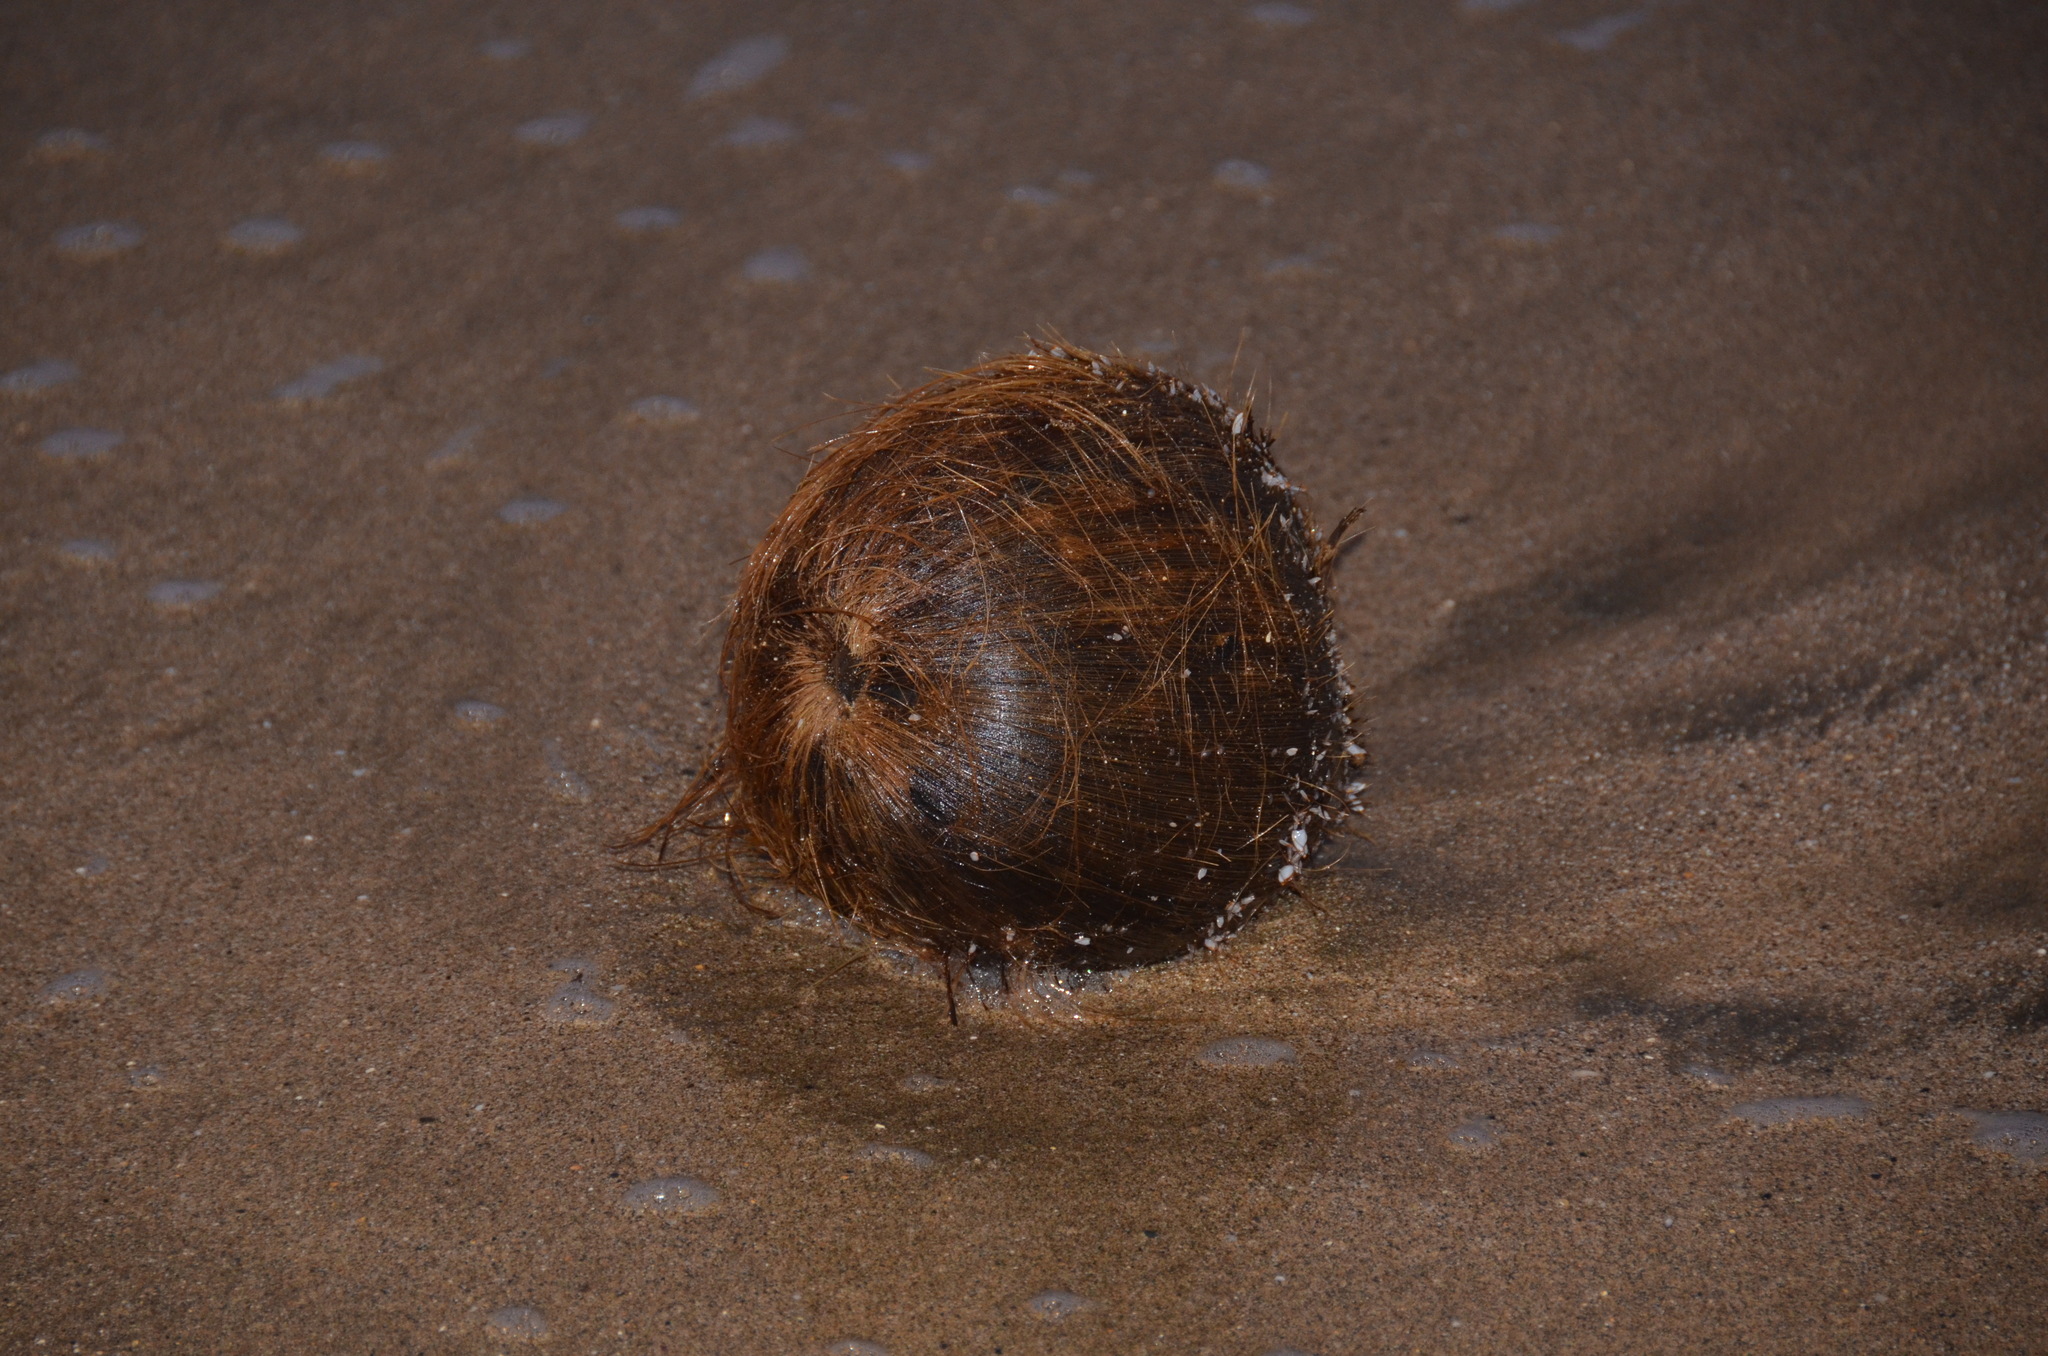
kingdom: Plantae
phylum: Tracheophyta
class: Liliopsida
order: Arecales
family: Arecaceae
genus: Cocos
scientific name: Cocos nucifera
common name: Coconut palm
